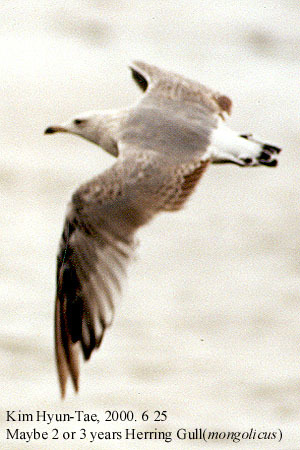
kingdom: Animalia
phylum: Chordata
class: Aves
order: Charadriiformes
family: Laridae
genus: Larus
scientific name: Larus vegae
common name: Vega gull
